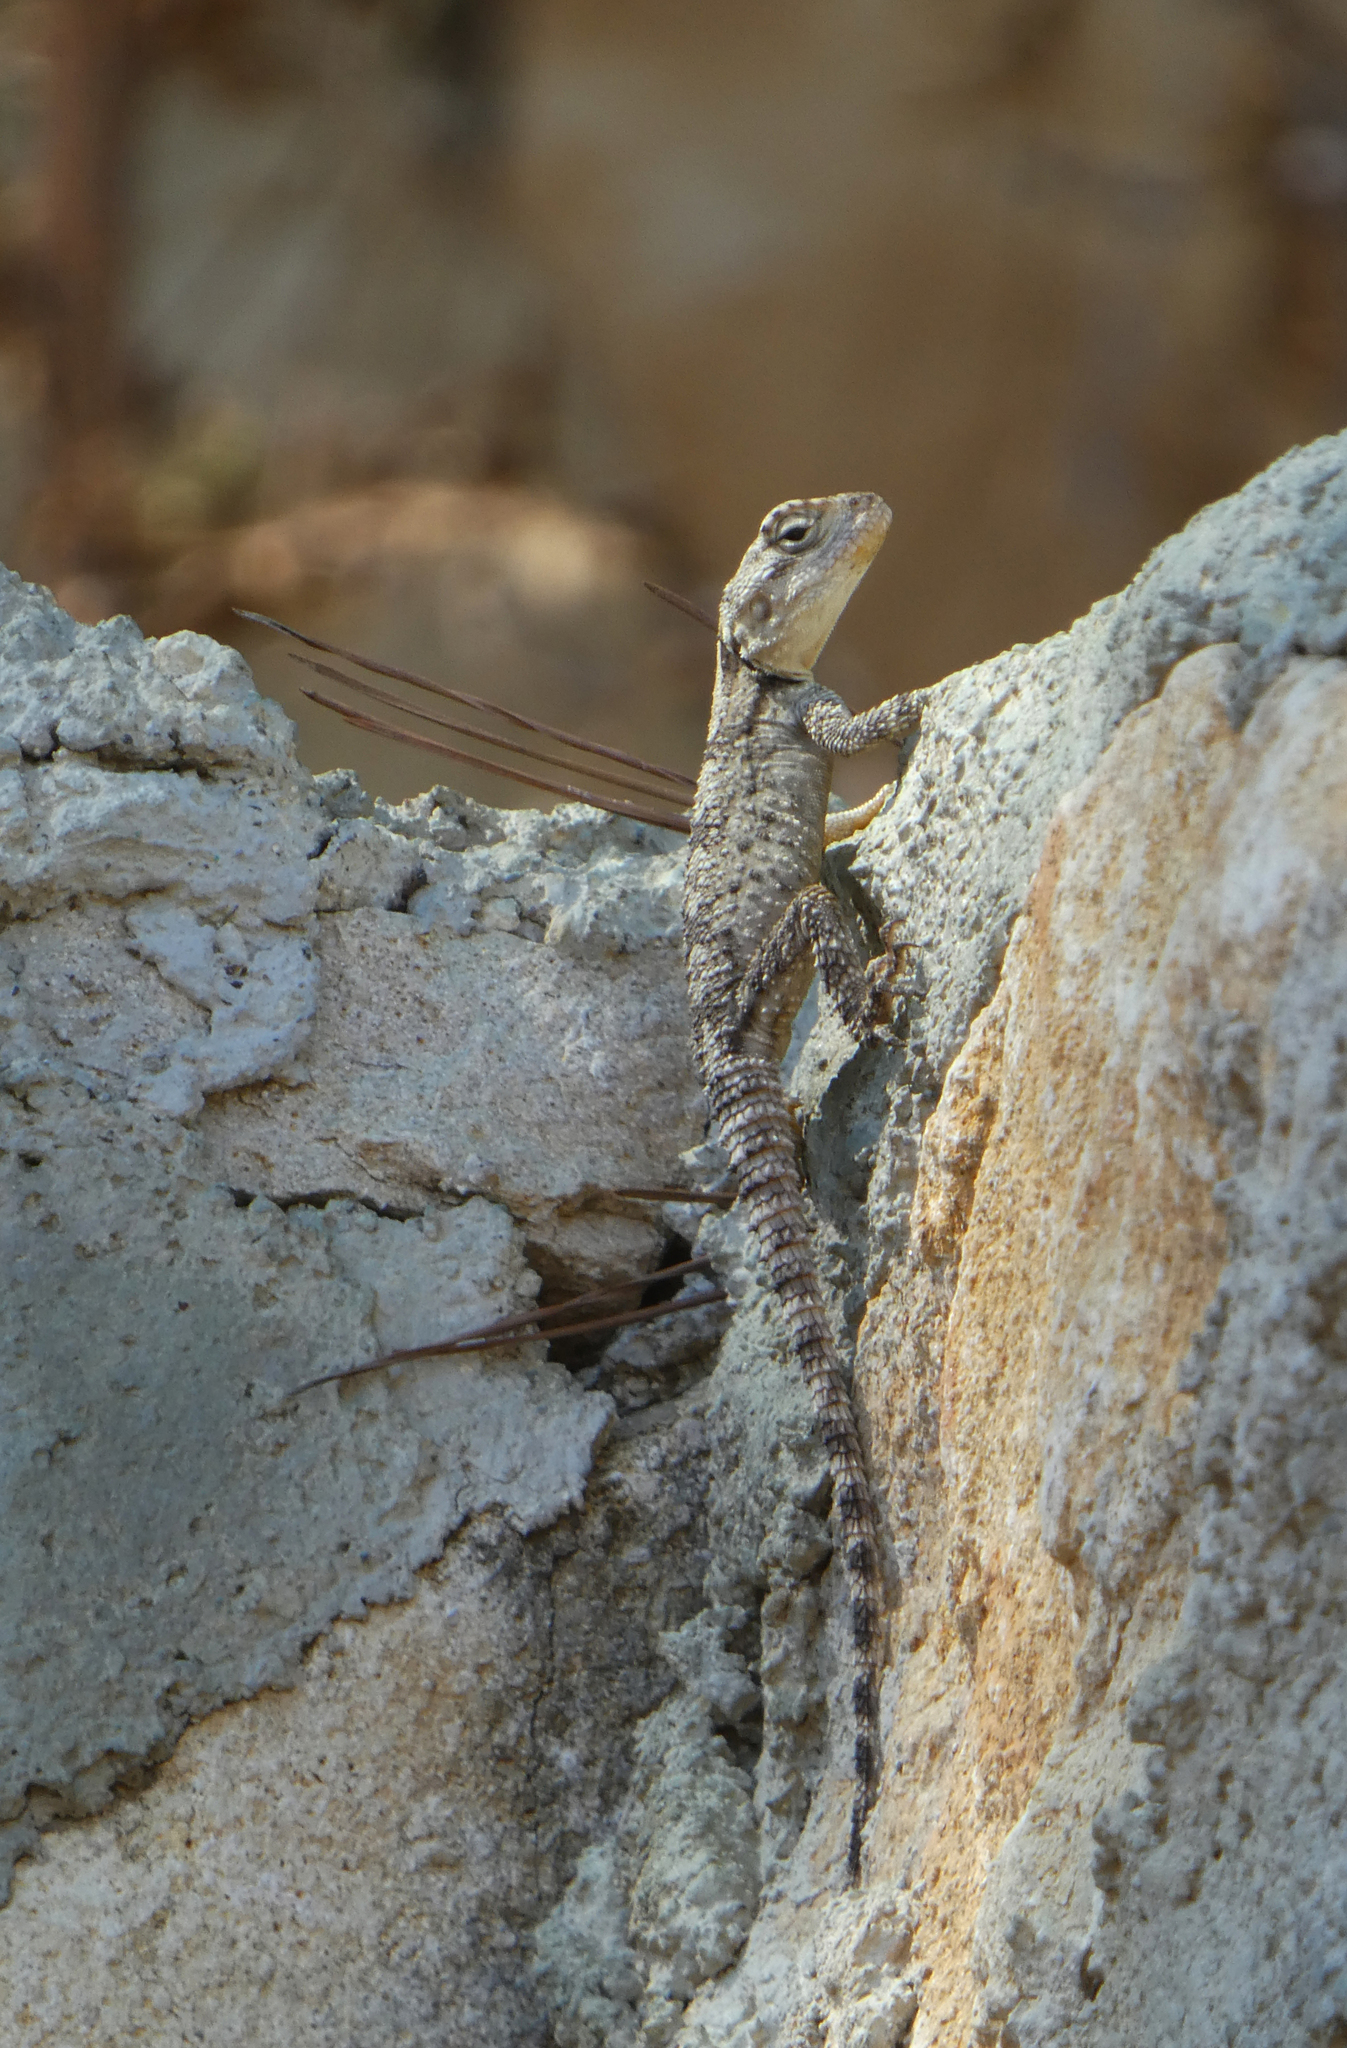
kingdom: Animalia
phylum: Chordata
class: Squamata
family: Agamidae
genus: Stellagama
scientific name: Stellagama stellio
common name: Starred agama
